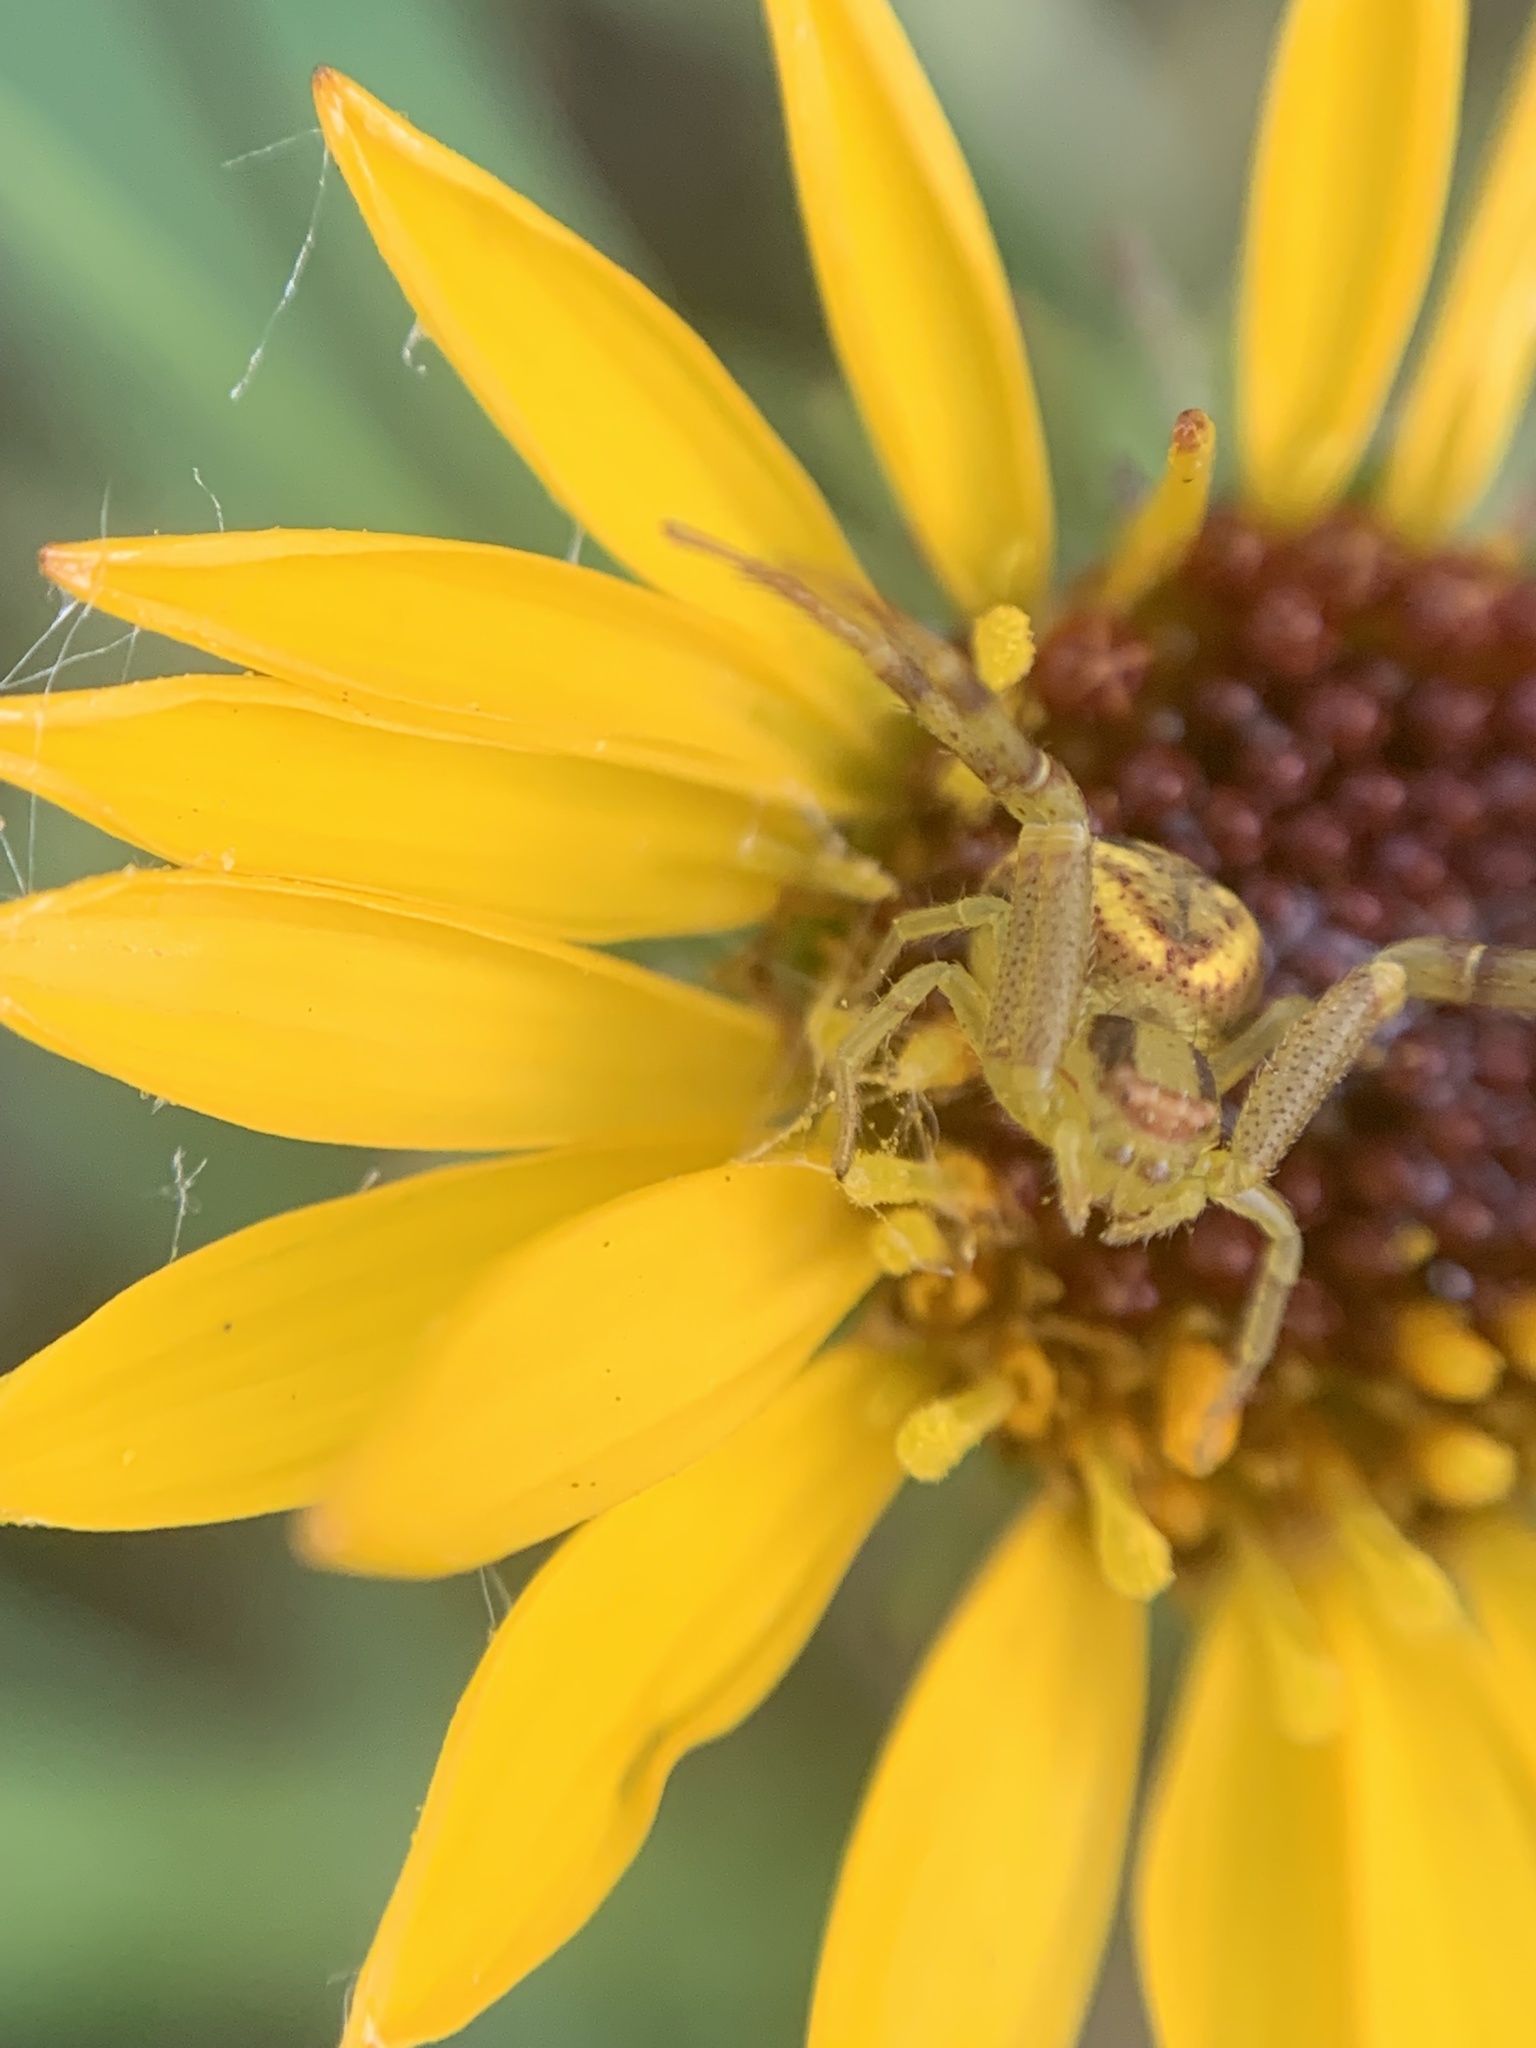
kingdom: Animalia
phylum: Arthropoda
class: Arachnida
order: Araneae
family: Thomisidae
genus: Misumenops
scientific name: Misumenops
